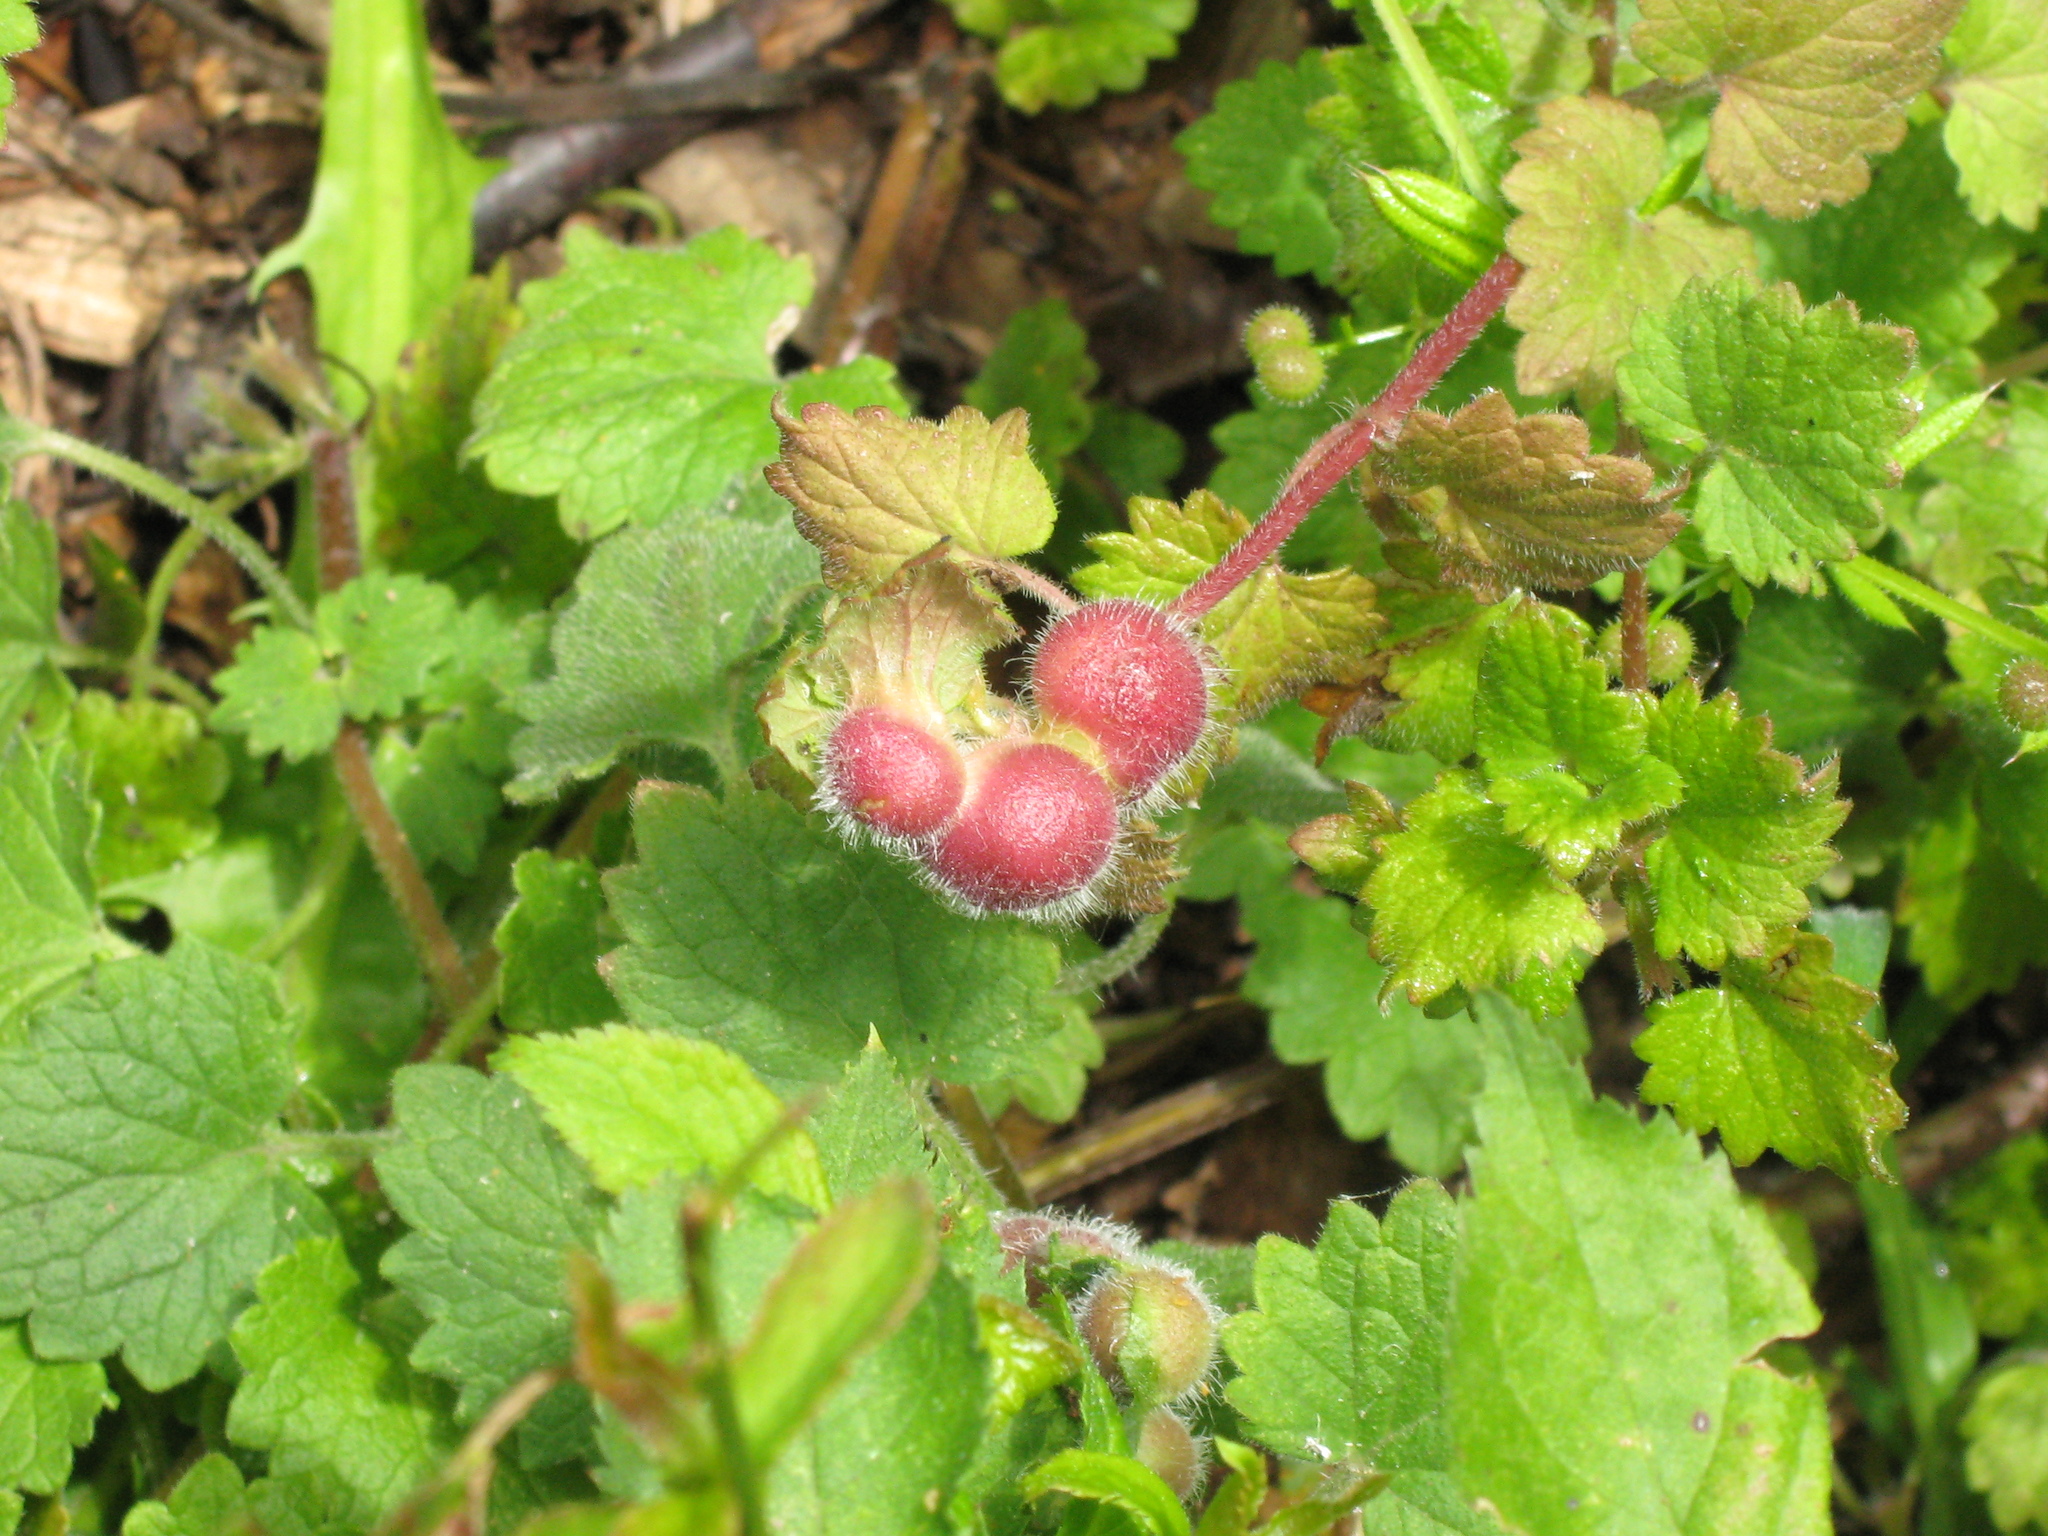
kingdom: Animalia
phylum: Arthropoda
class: Insecta
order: Hymenoptera
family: Cynipidae
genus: Liposthenes
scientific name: Liposthenes glechomae
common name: Gall wasp
